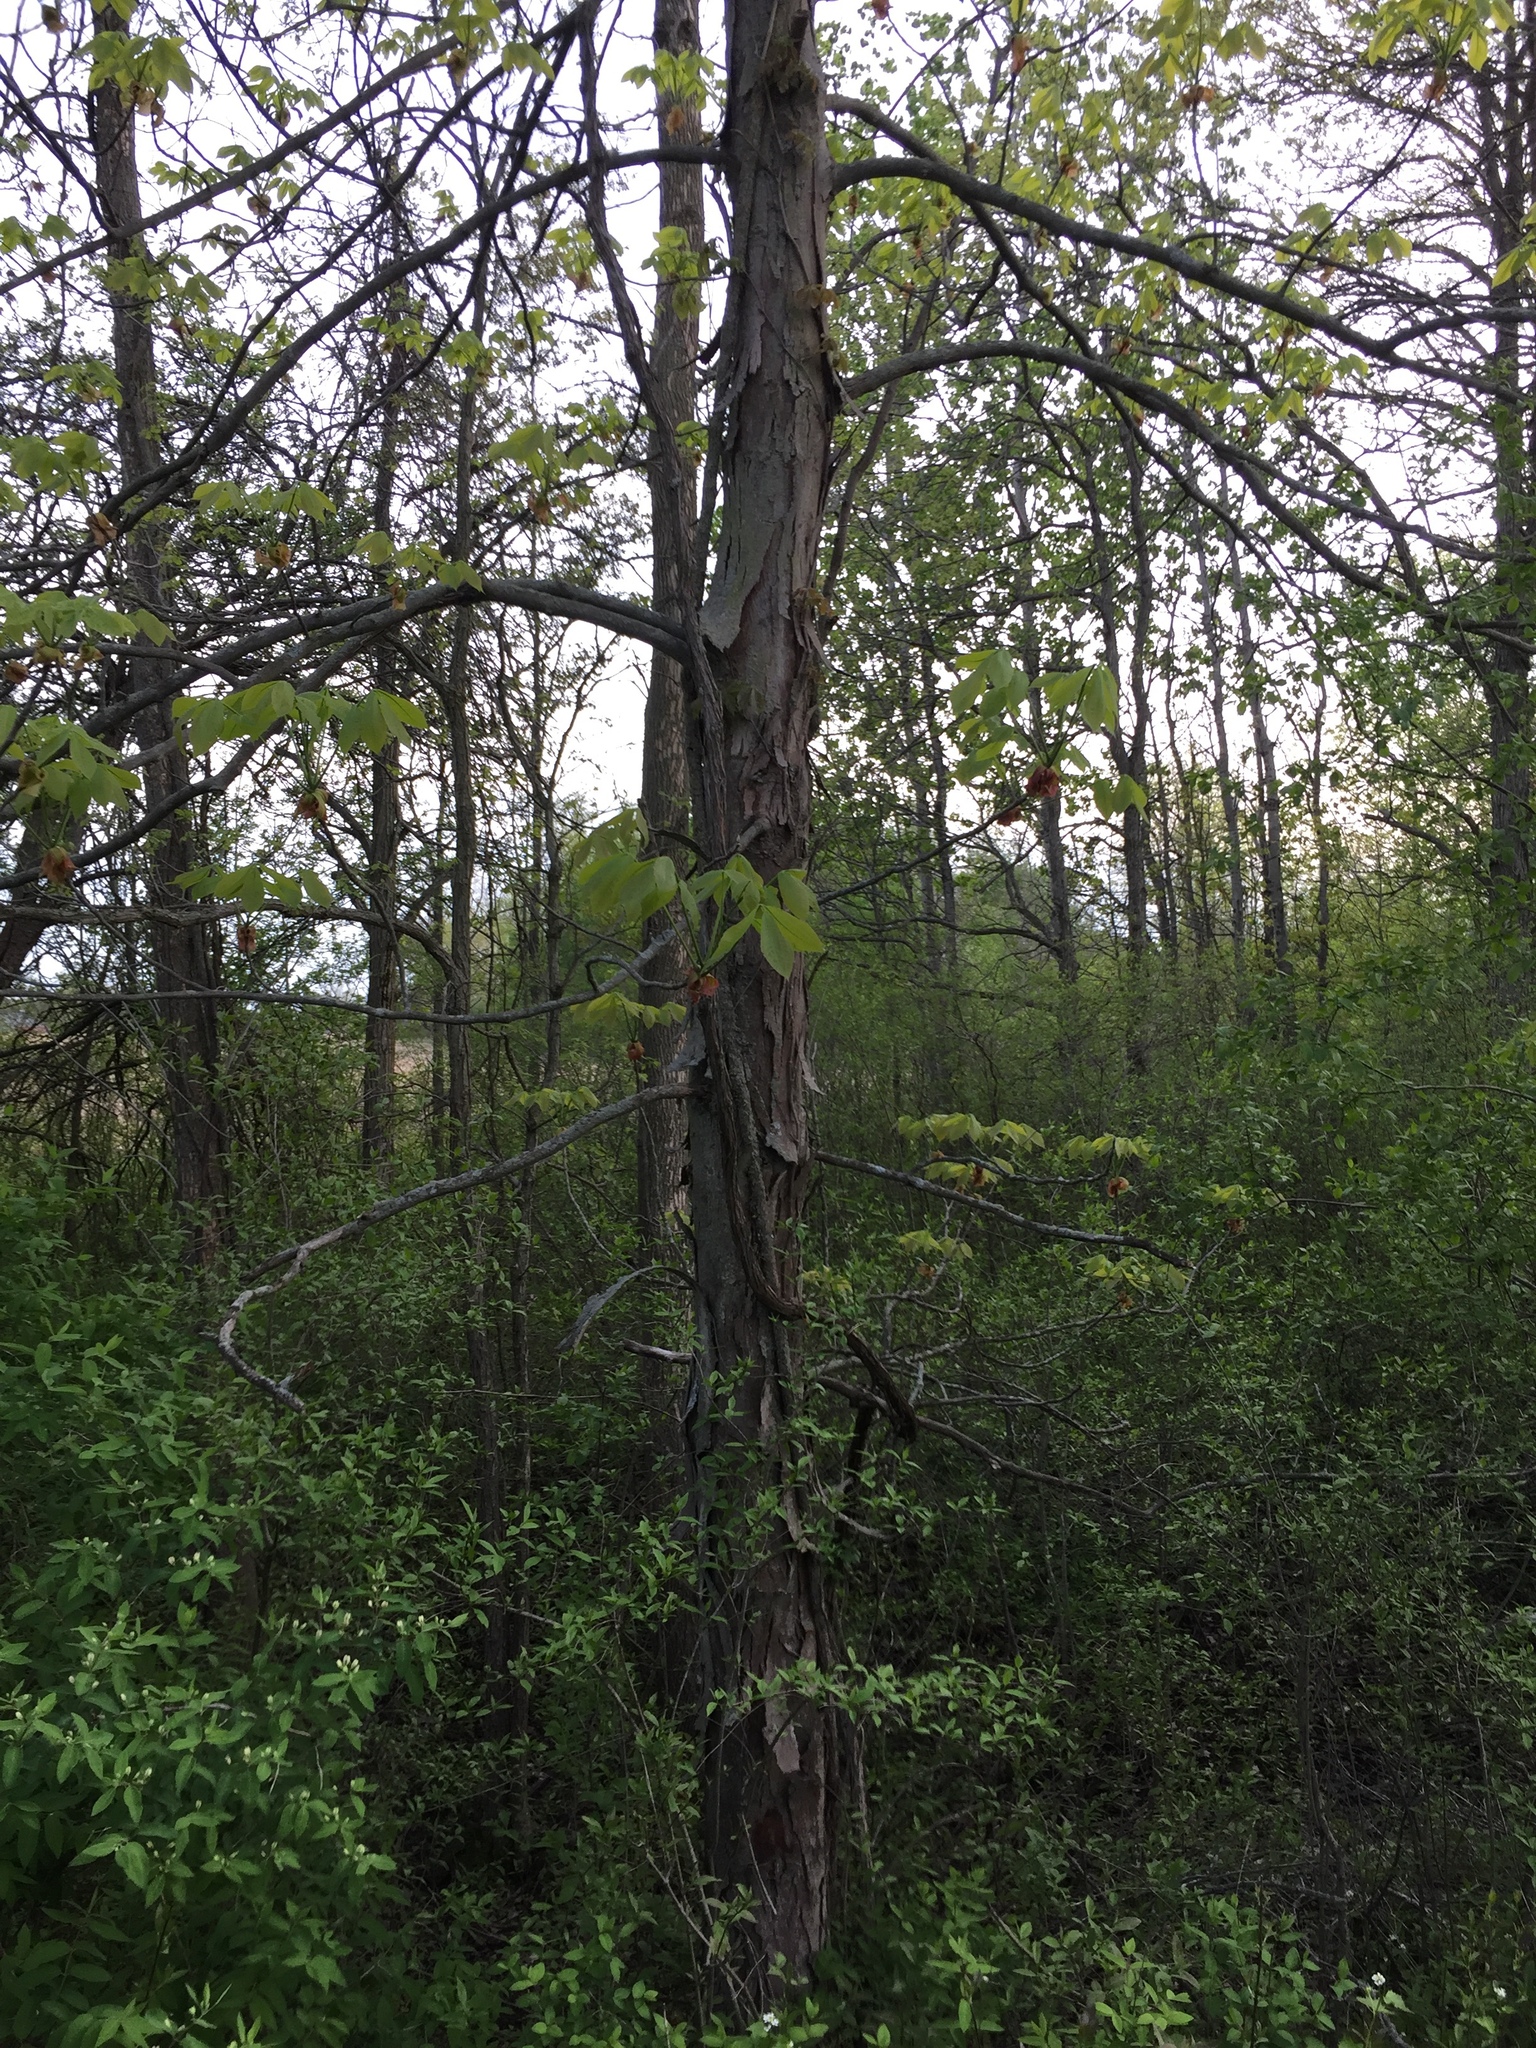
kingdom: Plantae
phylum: Tracheophyta
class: Magnoliopsida
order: Fagales
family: Juglandaceae
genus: Carya
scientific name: Carya ovata
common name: Shagbark hickory
